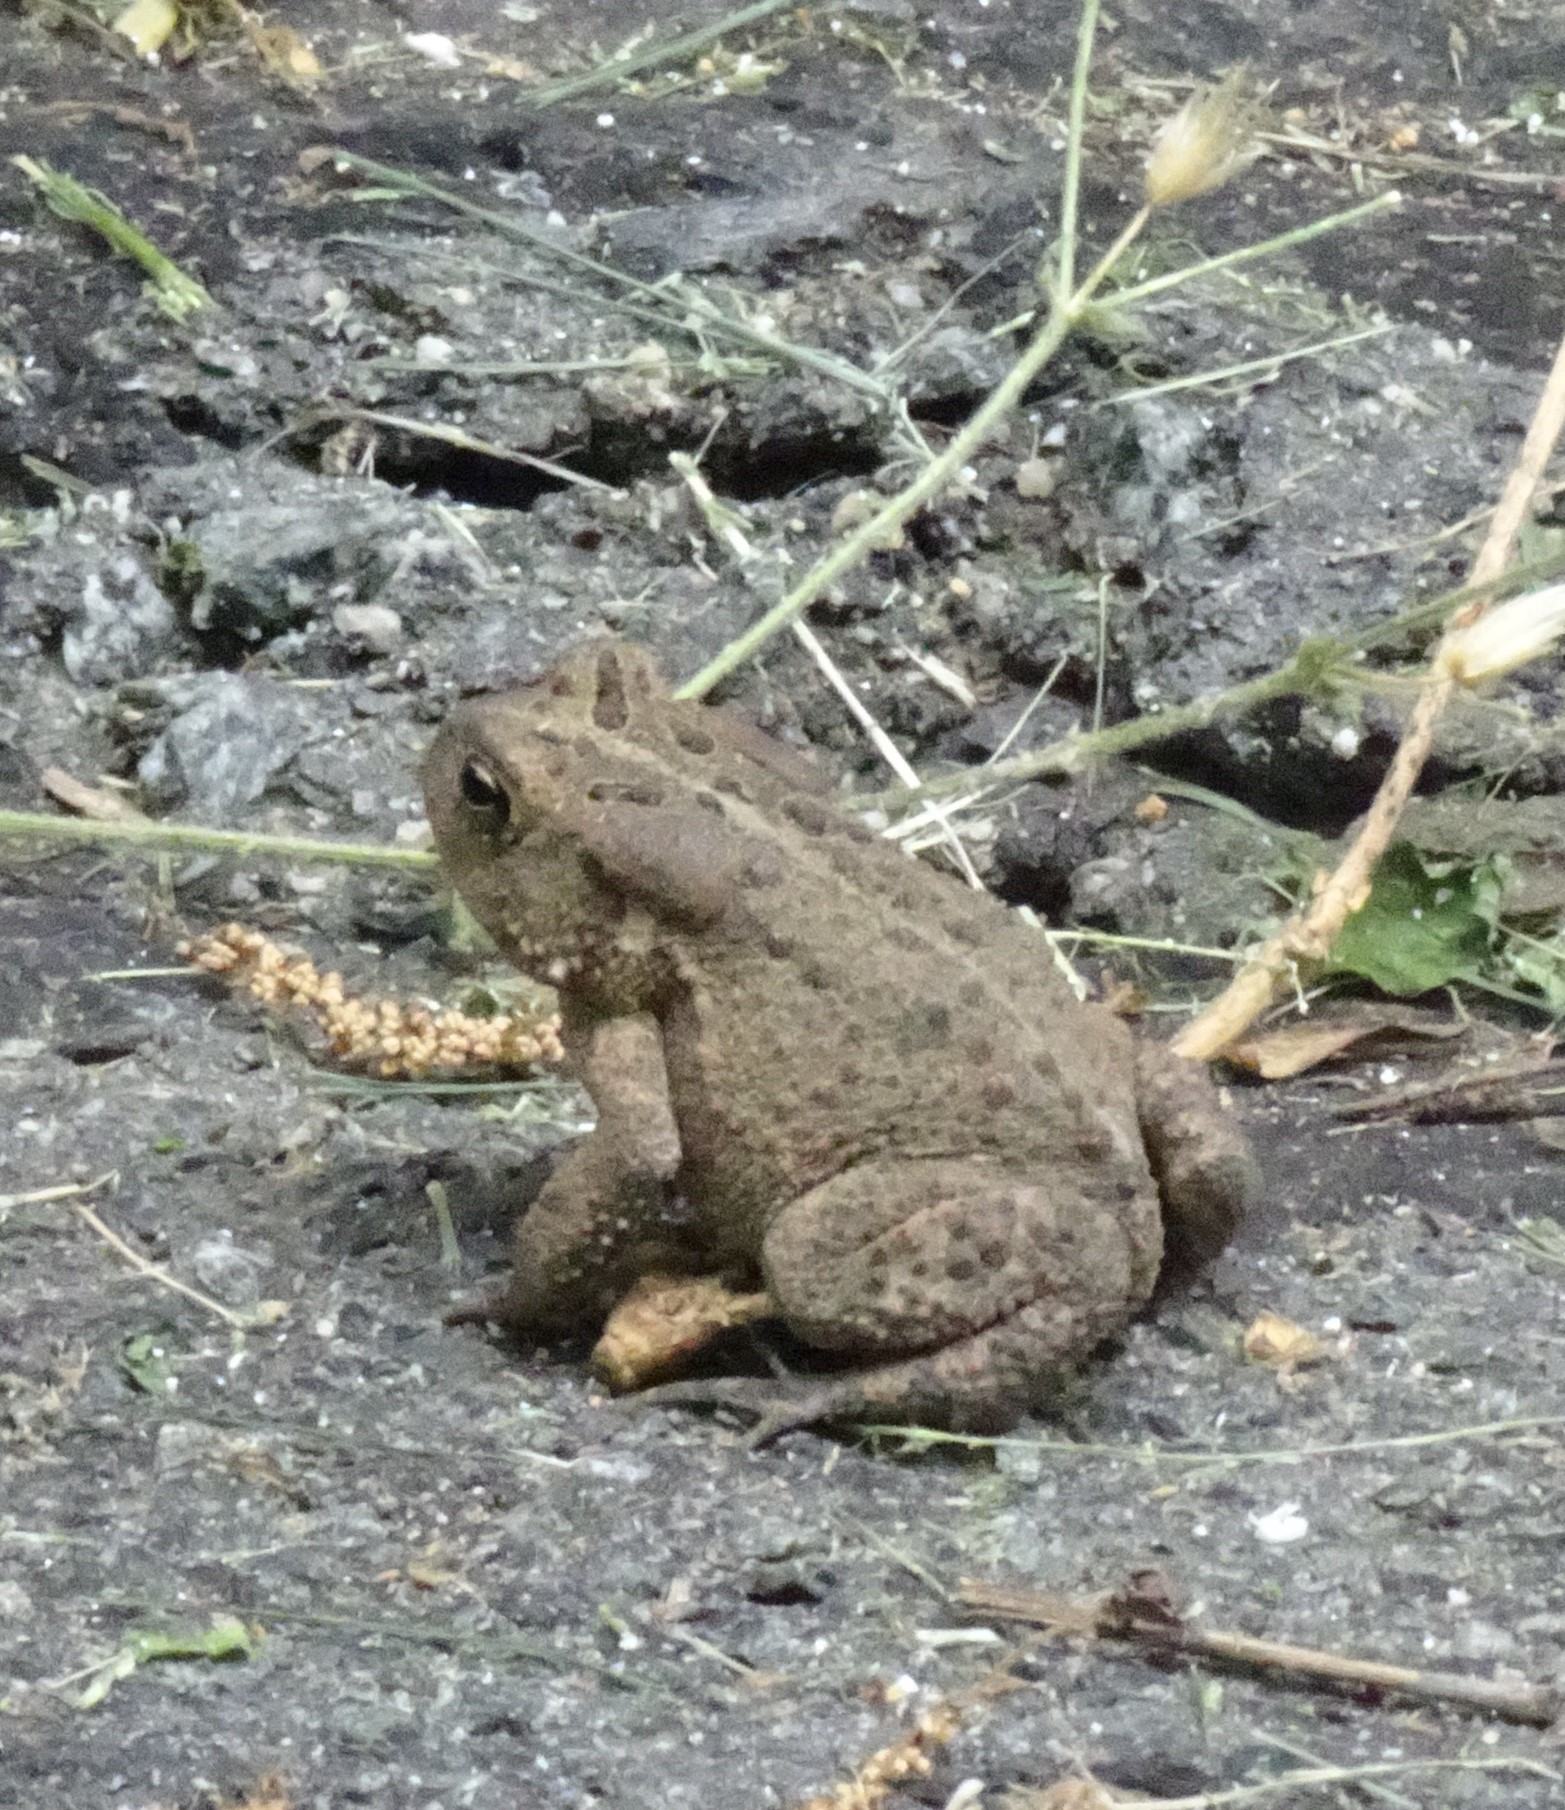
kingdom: Animalia
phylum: Chordata
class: Amphibia
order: Anura
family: Bufonidae
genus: Anaxyrus
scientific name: Anaxyrus americanus
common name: American toad
